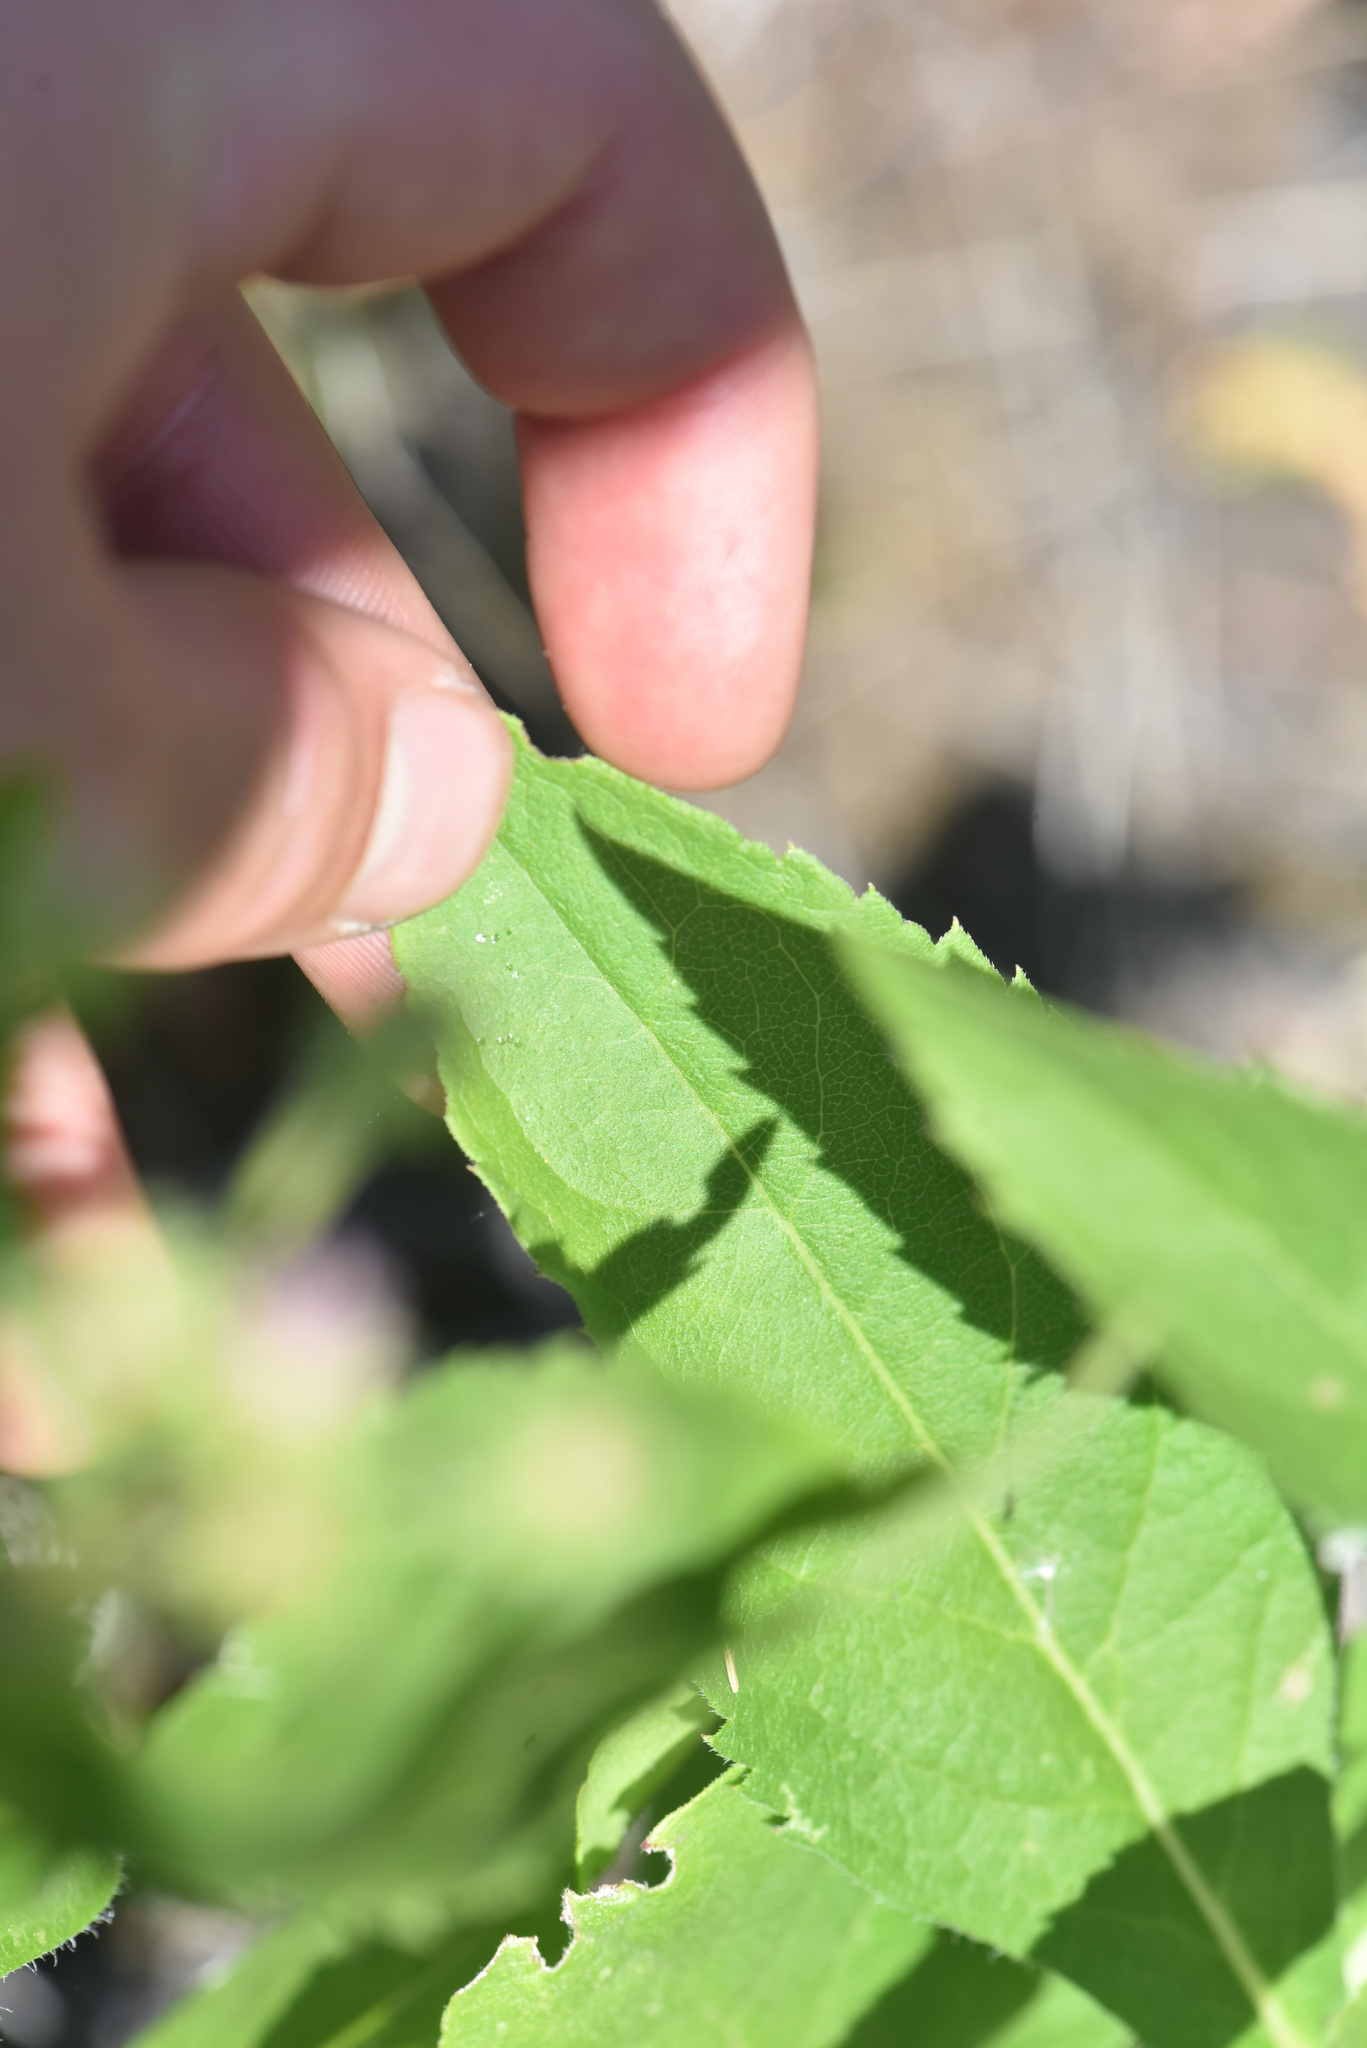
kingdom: Plantae
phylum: Tracheophyta
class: Magnoliopsida
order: Asterales
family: Asteraceae
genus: Eurybia
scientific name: Eurybia conspicua
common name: Showy aster
